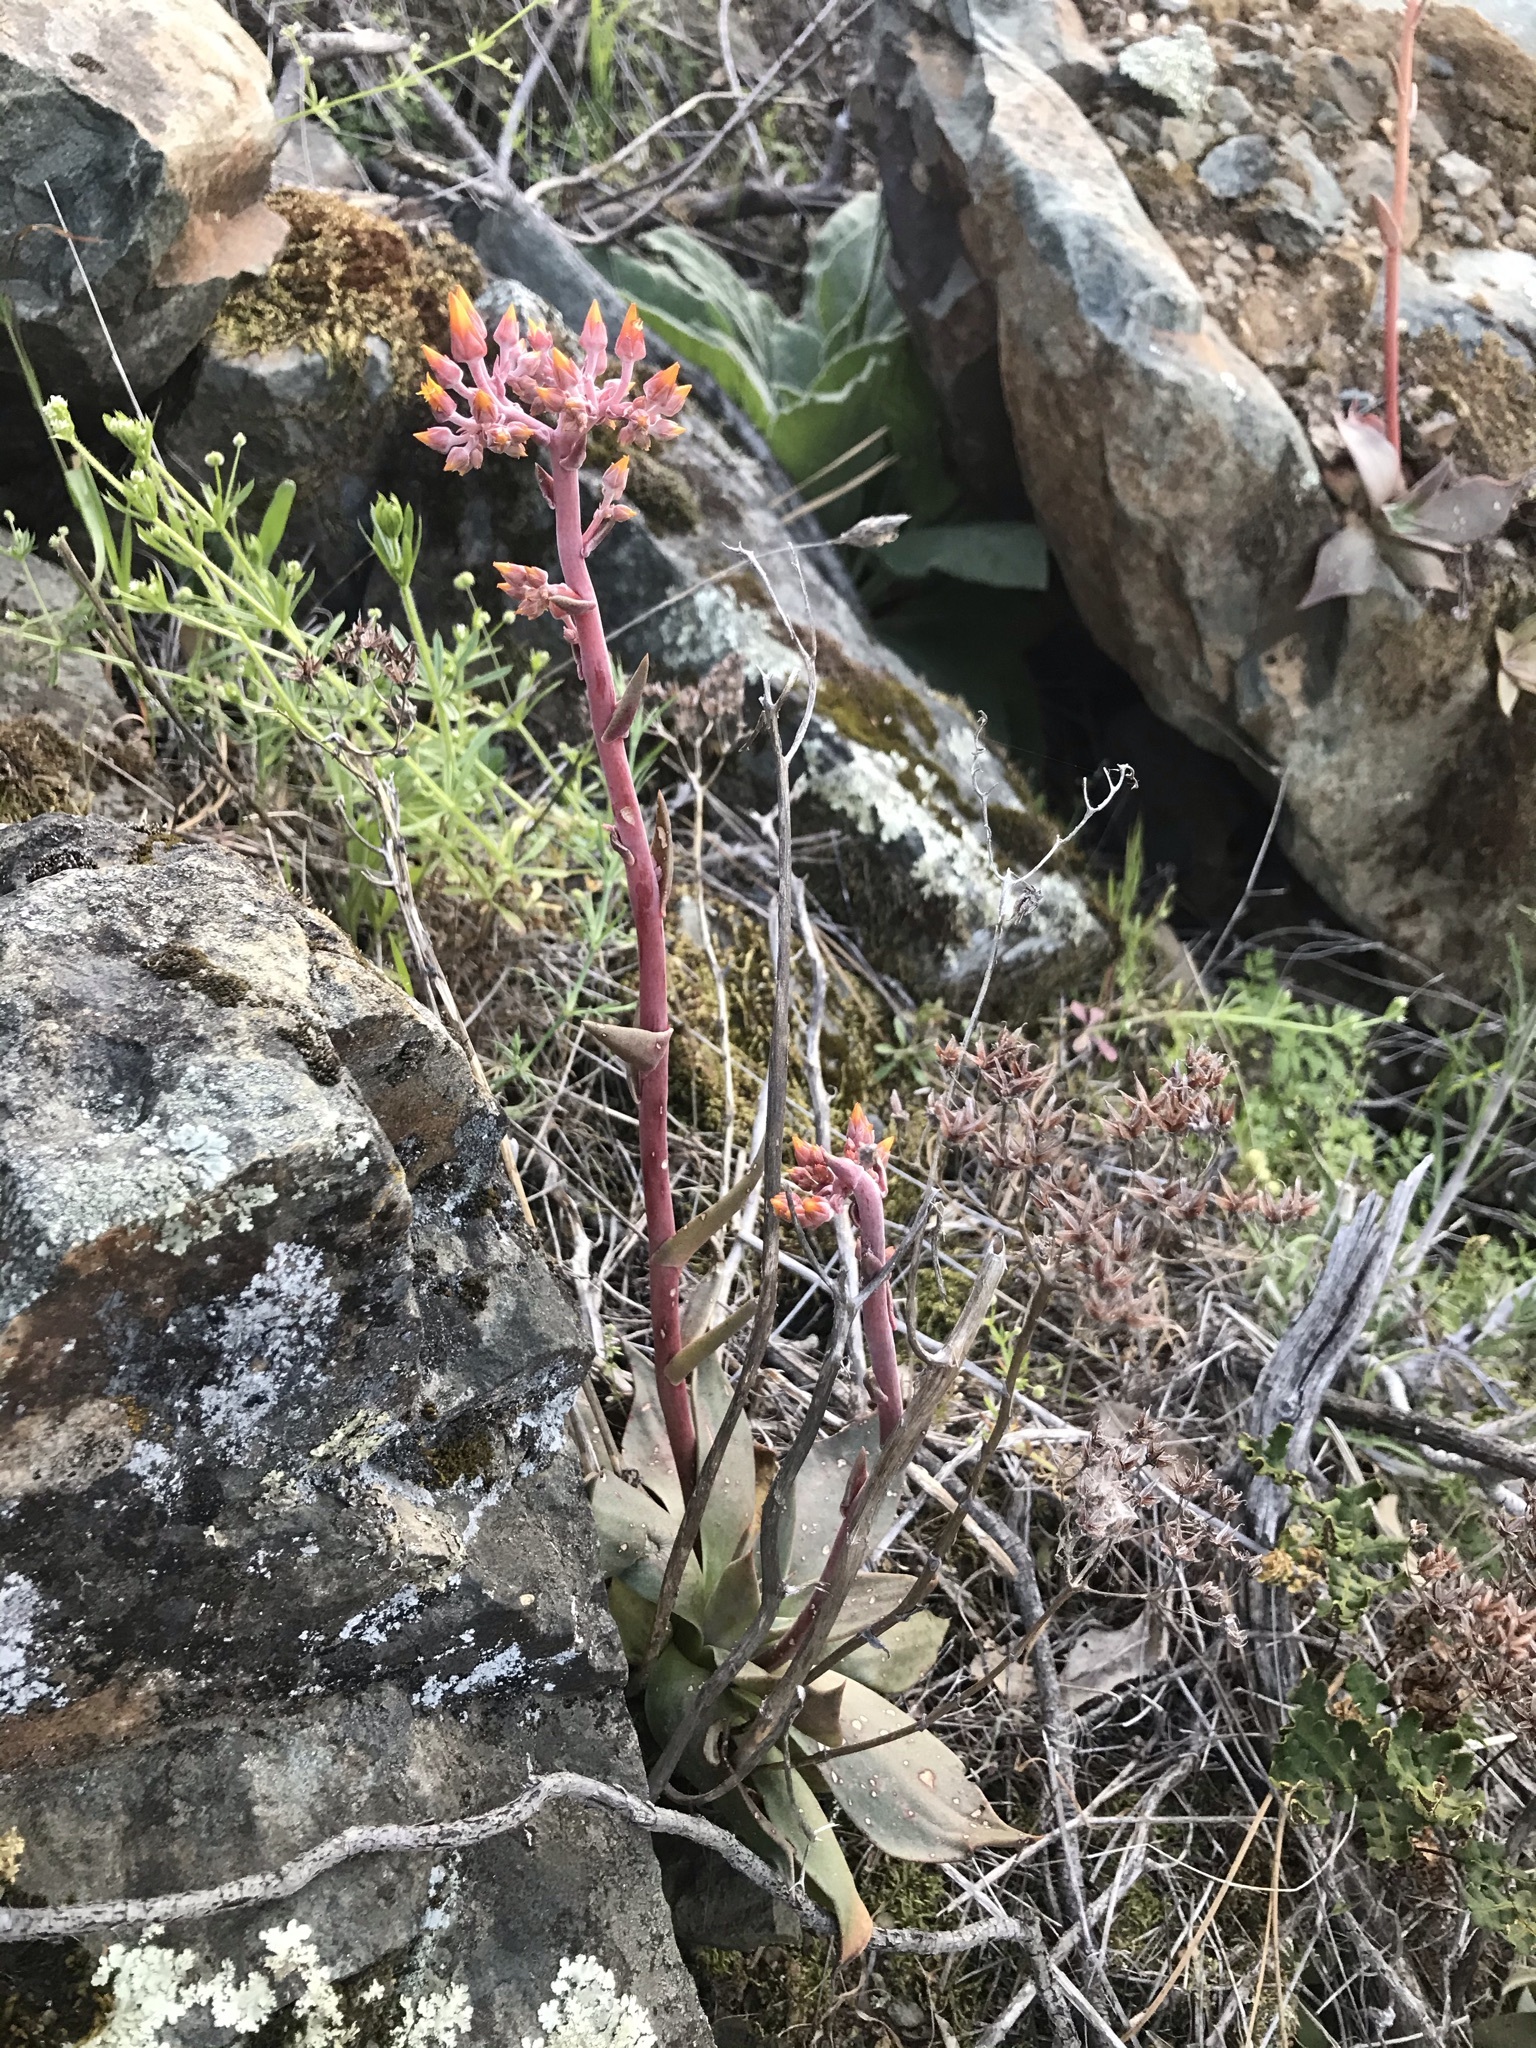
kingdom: Plantae
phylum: Tracheophyta
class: Magnoliopsida
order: Saxifragales
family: Crassulaceae
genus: Dudleya
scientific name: Dudleya cymosa
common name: Canyon dudleya
